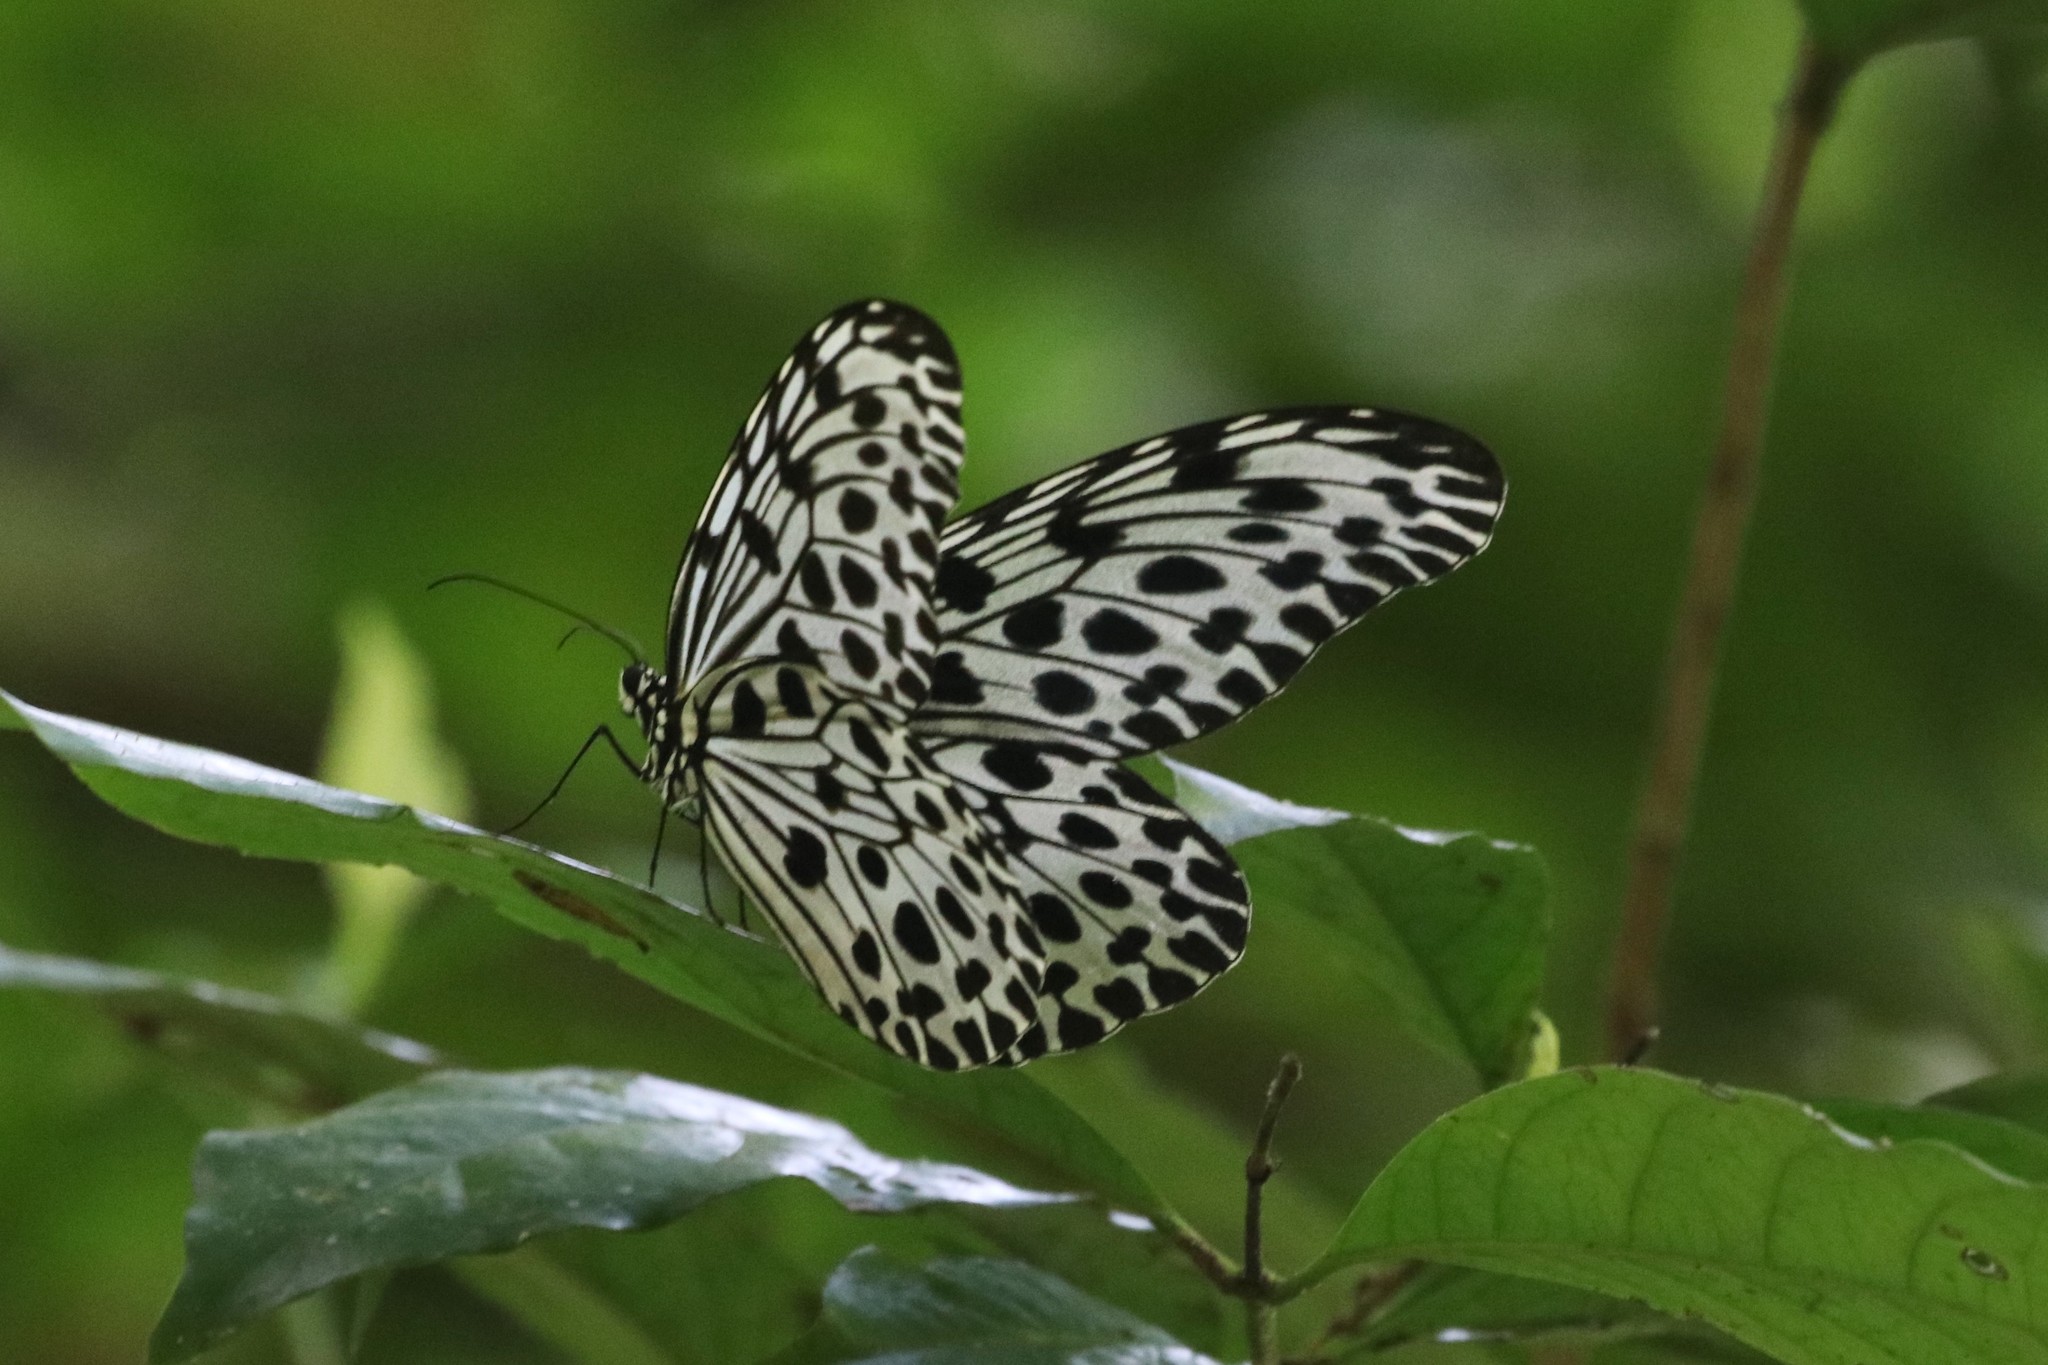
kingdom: Animalia
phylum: Arthropoda
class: Insecta
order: Lepidoptera
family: Nymphalidae
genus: Idea
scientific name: Idea lynceus
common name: Giant tree nymph
